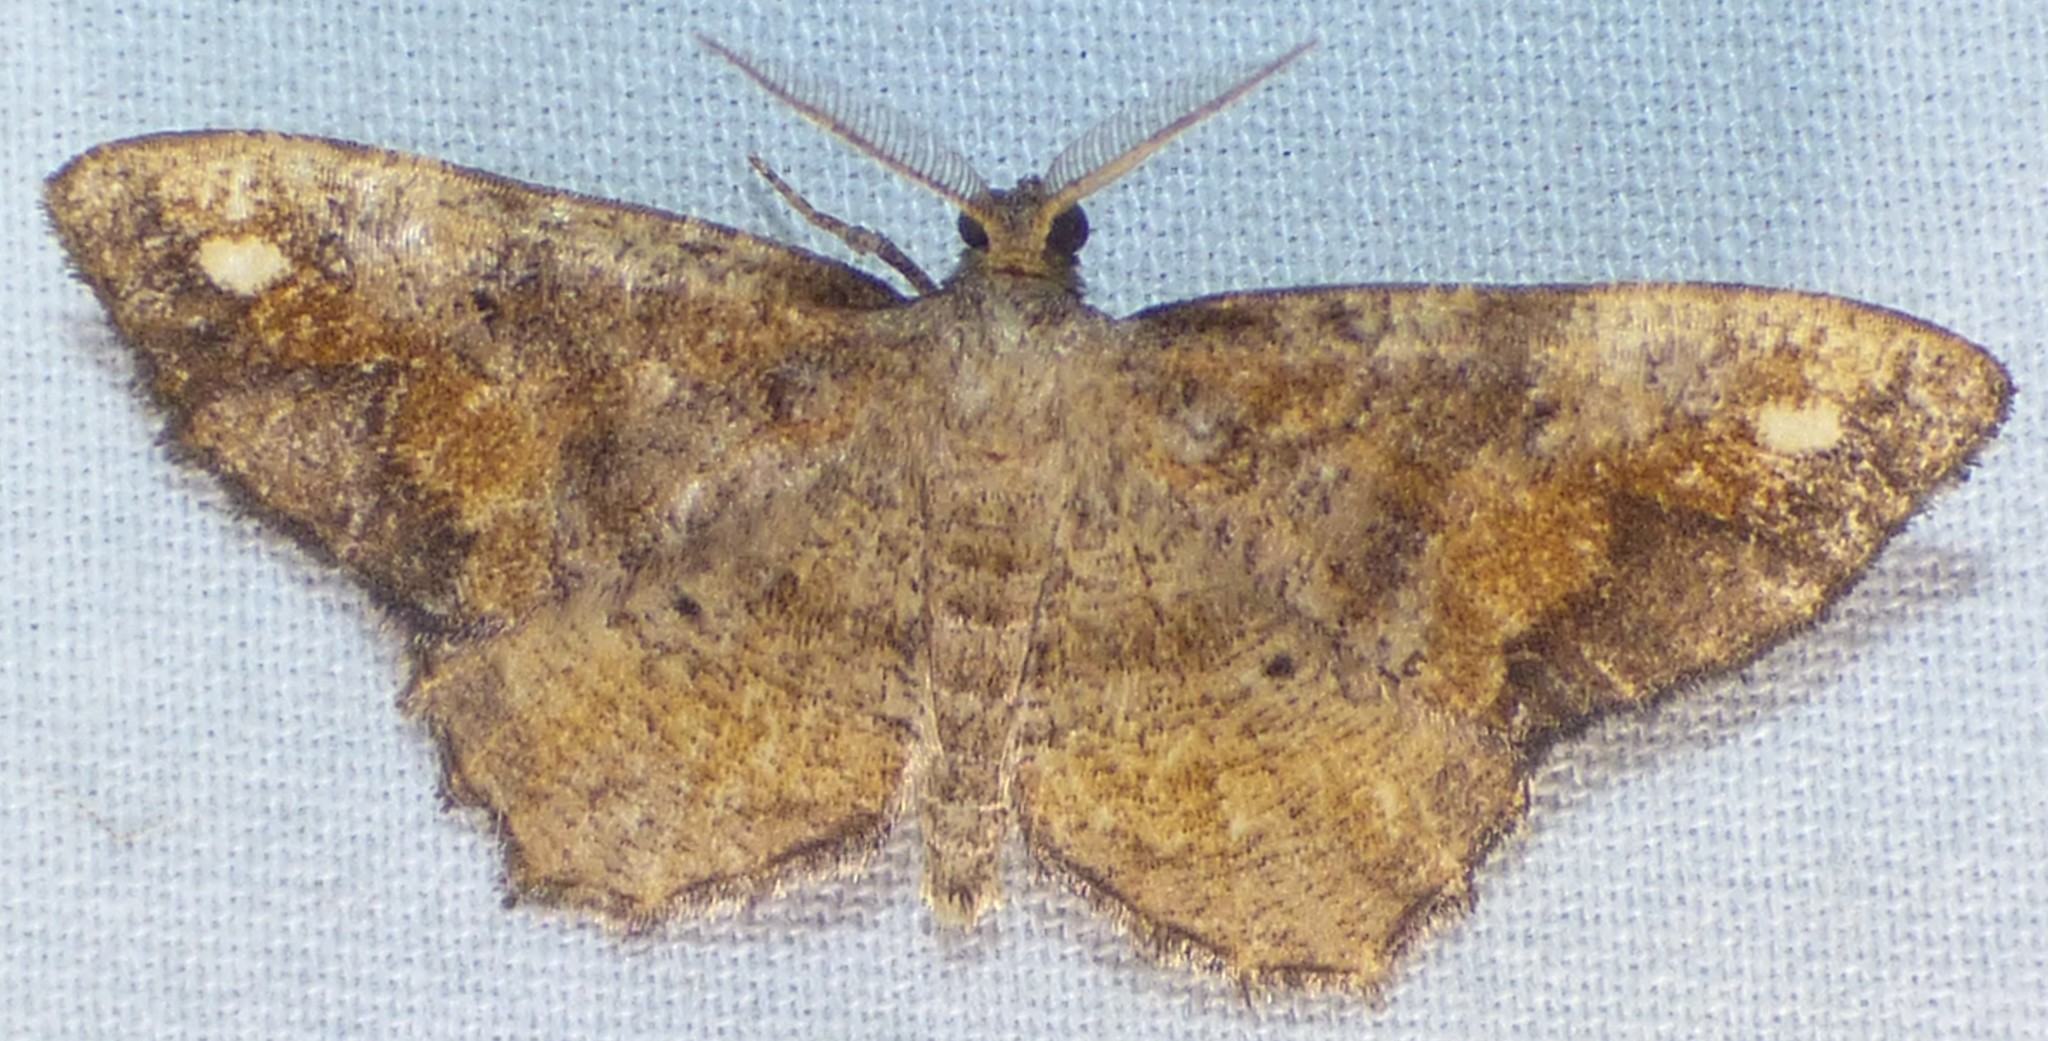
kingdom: Animalia
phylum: Arthropoda
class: Insecta
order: Lepidoptera
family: Geometridae
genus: Hypagyrtis
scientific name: Hypagyrtis unipunctata
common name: One-spotted variant
